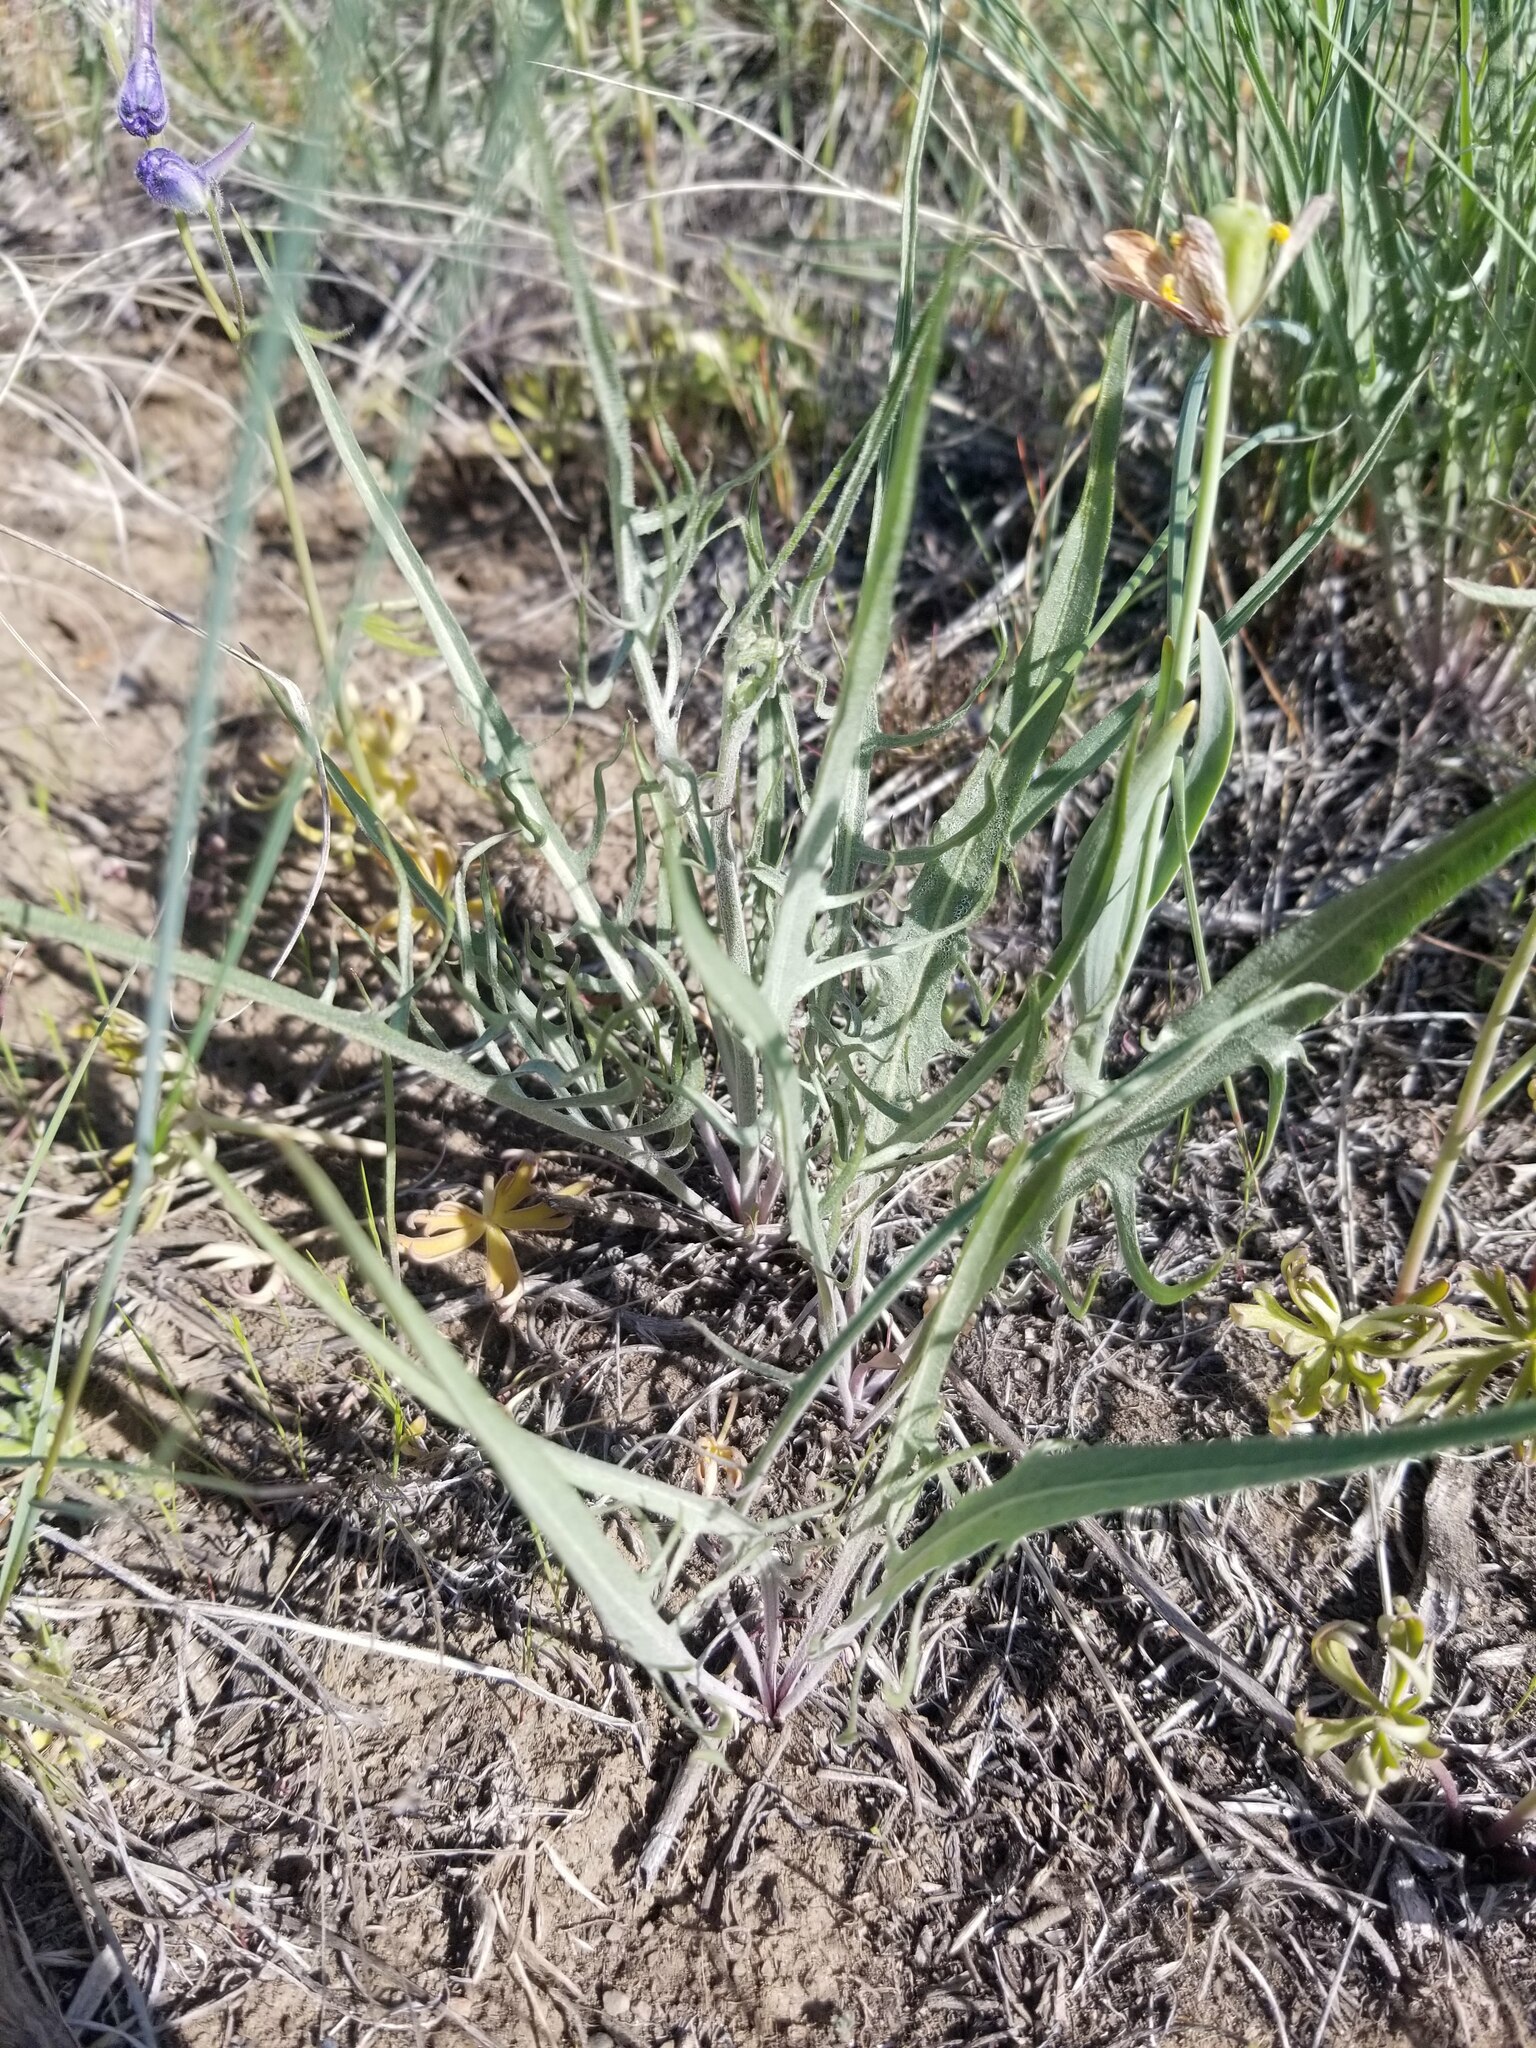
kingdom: Plantae
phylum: Tracheophyta
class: Magnoliopsida
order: Asterales
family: Asteraceae
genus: Crepis
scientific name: Crepis atribarba
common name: Dark hawk's-beard
